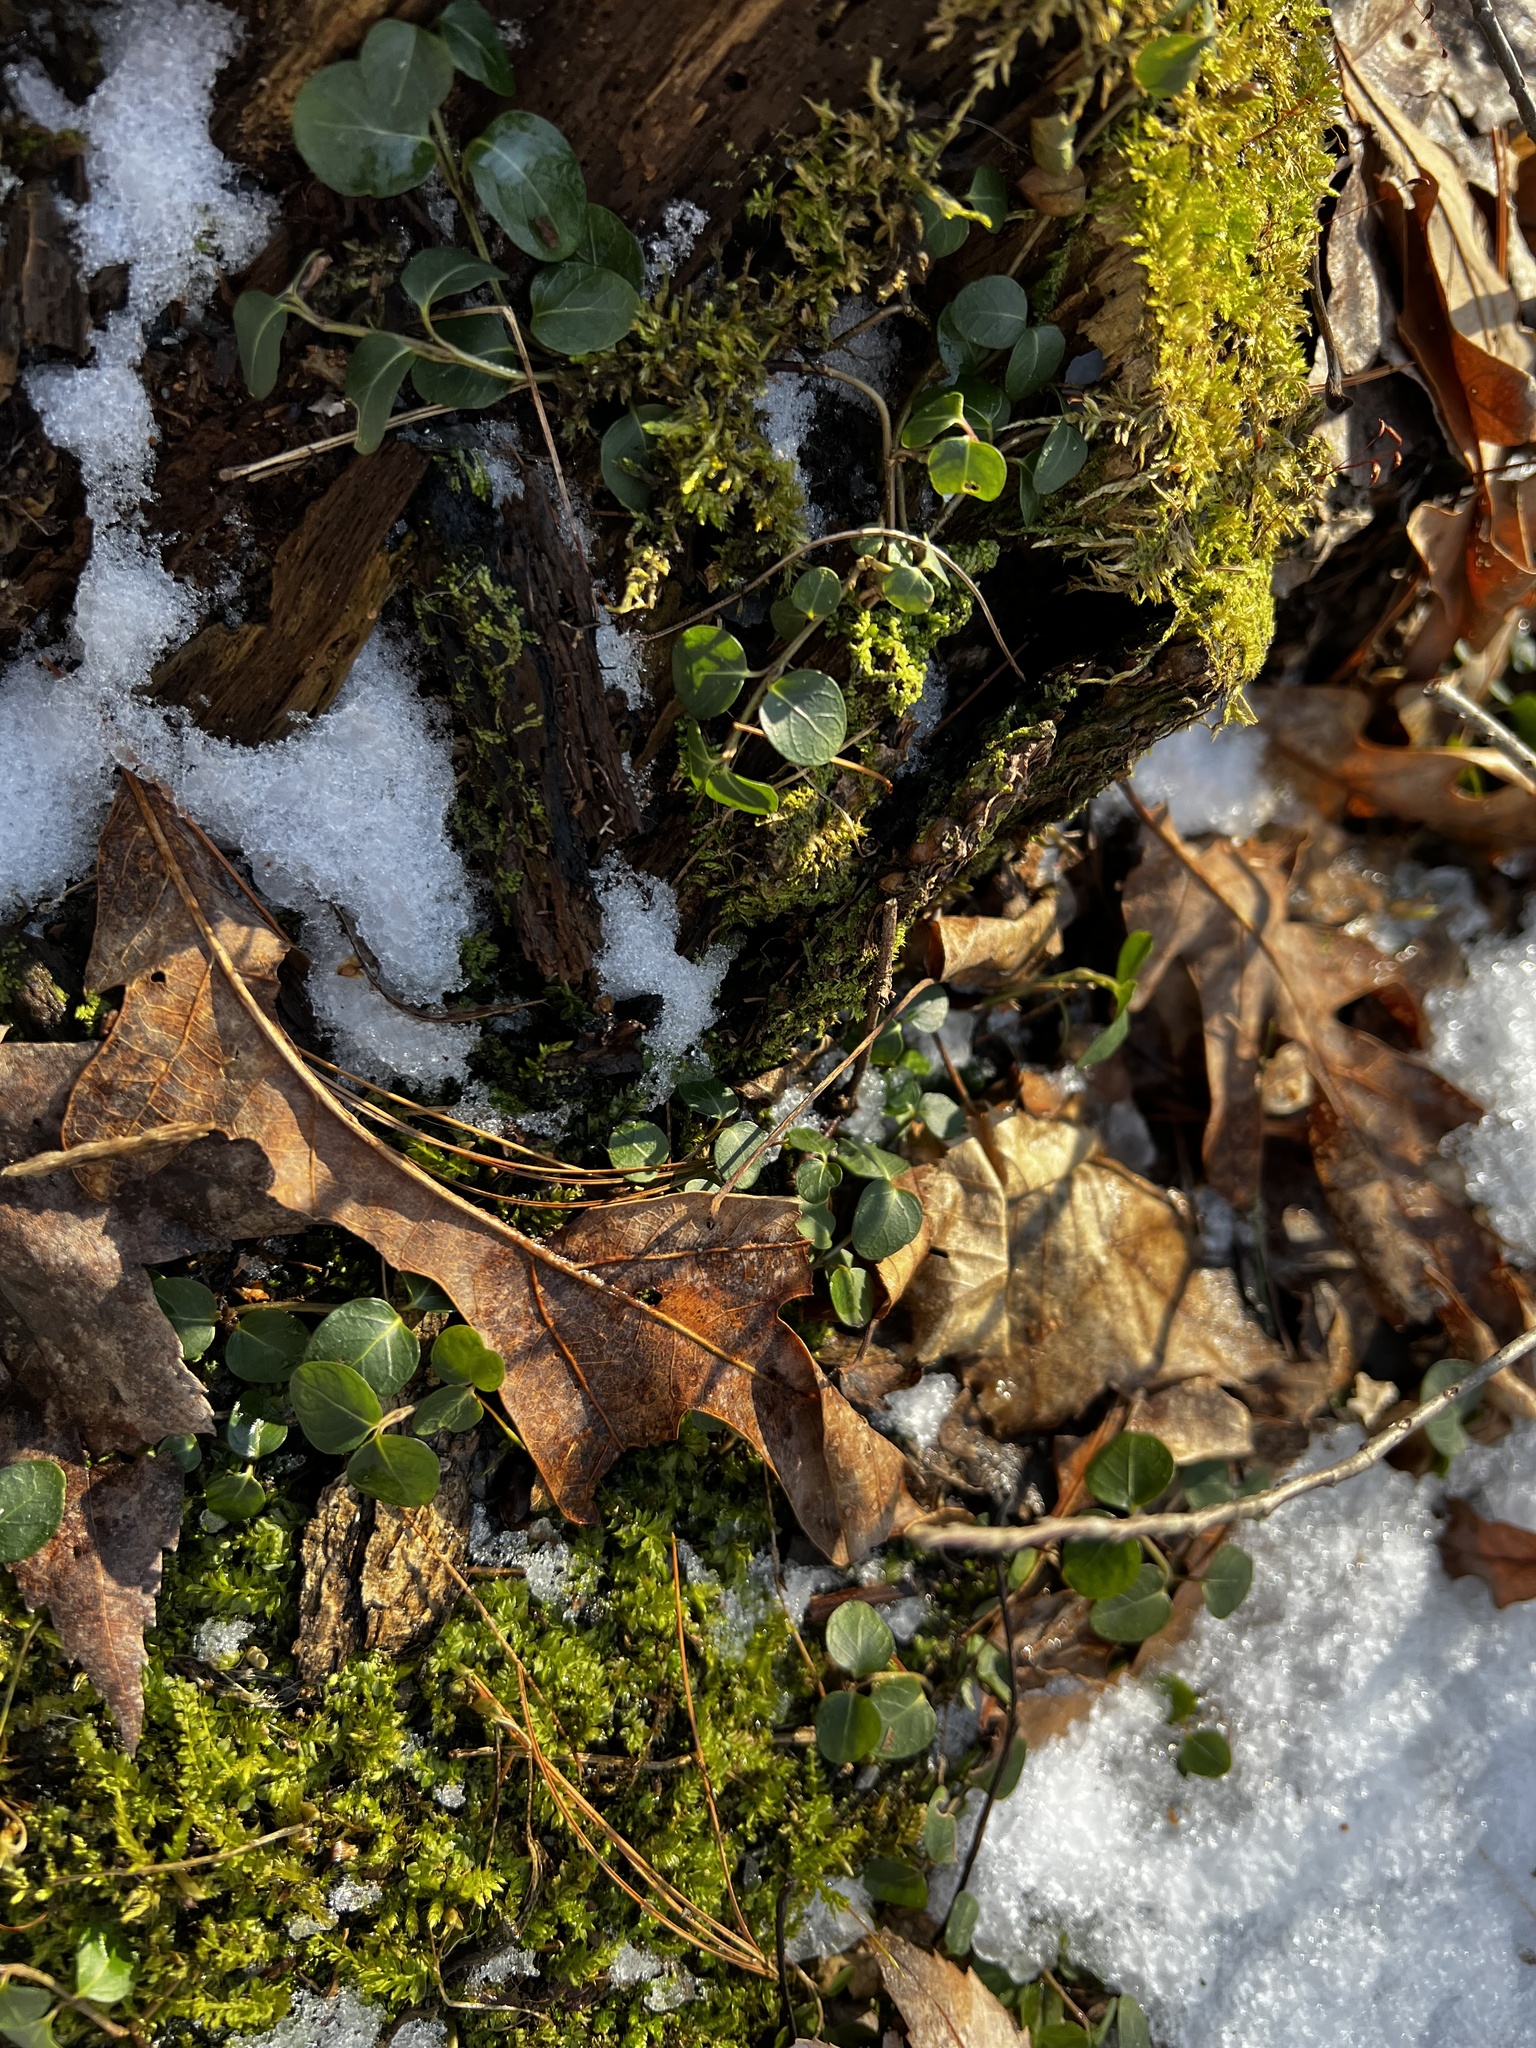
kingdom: Plantae
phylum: Tracheophyta
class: Magnoliopsida
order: Gentianales
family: Rubiaceae
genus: Mitchella
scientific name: Mitchella repens
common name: Partridge-berry
